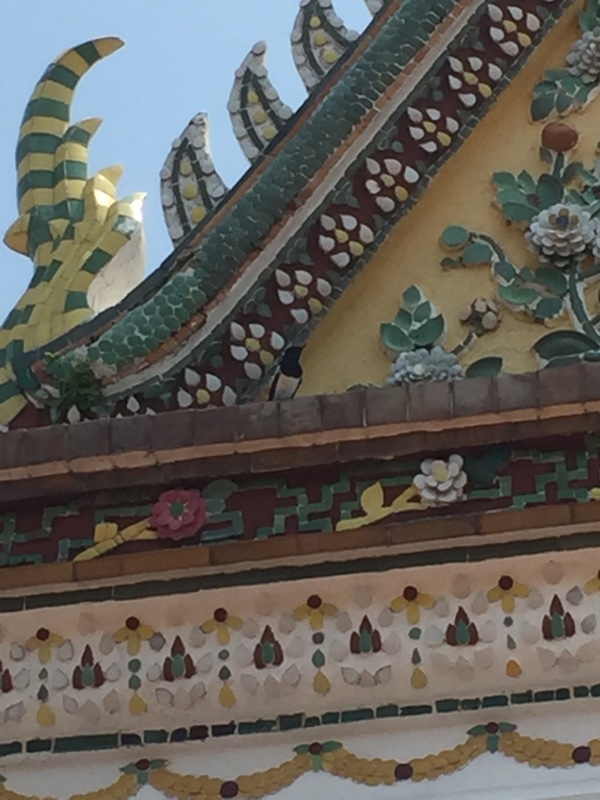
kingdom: Animalia
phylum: Chordata
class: Aves
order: Passeriformes
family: Muscicapidae
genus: Copsychus
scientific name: Copsychus saularis
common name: Oriental magpie-robin
